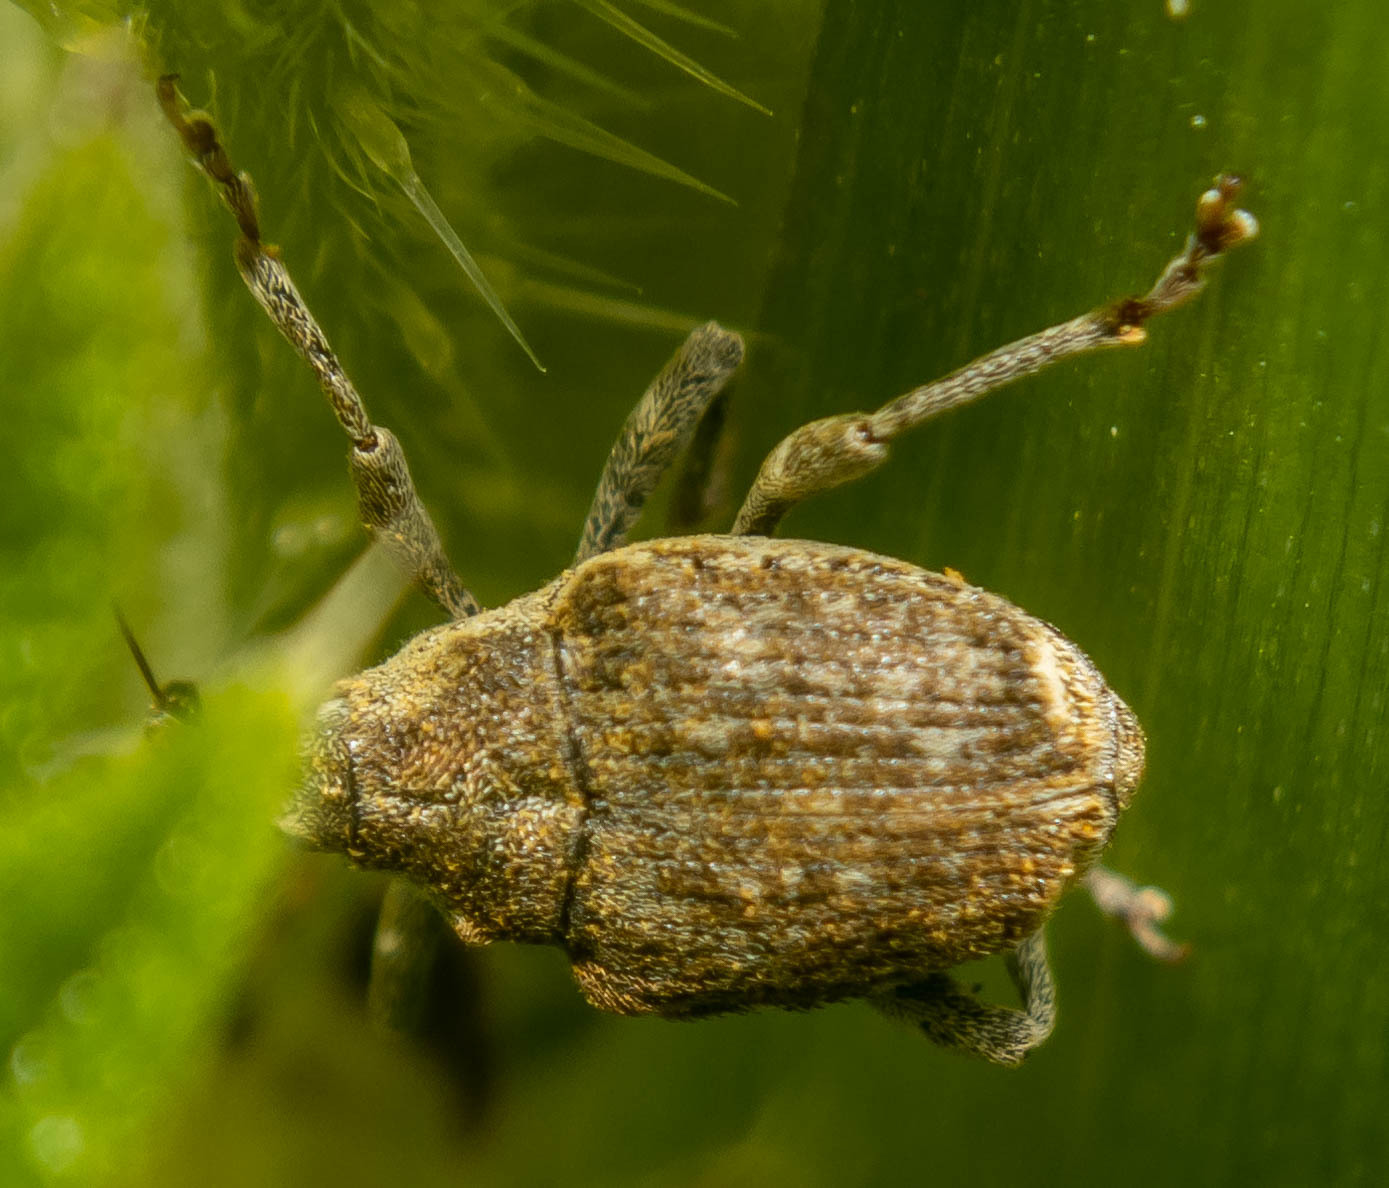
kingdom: Animalia
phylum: Arthropoda
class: Insecta
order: Coleoptera
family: Curculionidae
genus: Parethelcus
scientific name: Parethelcus pollinarius
